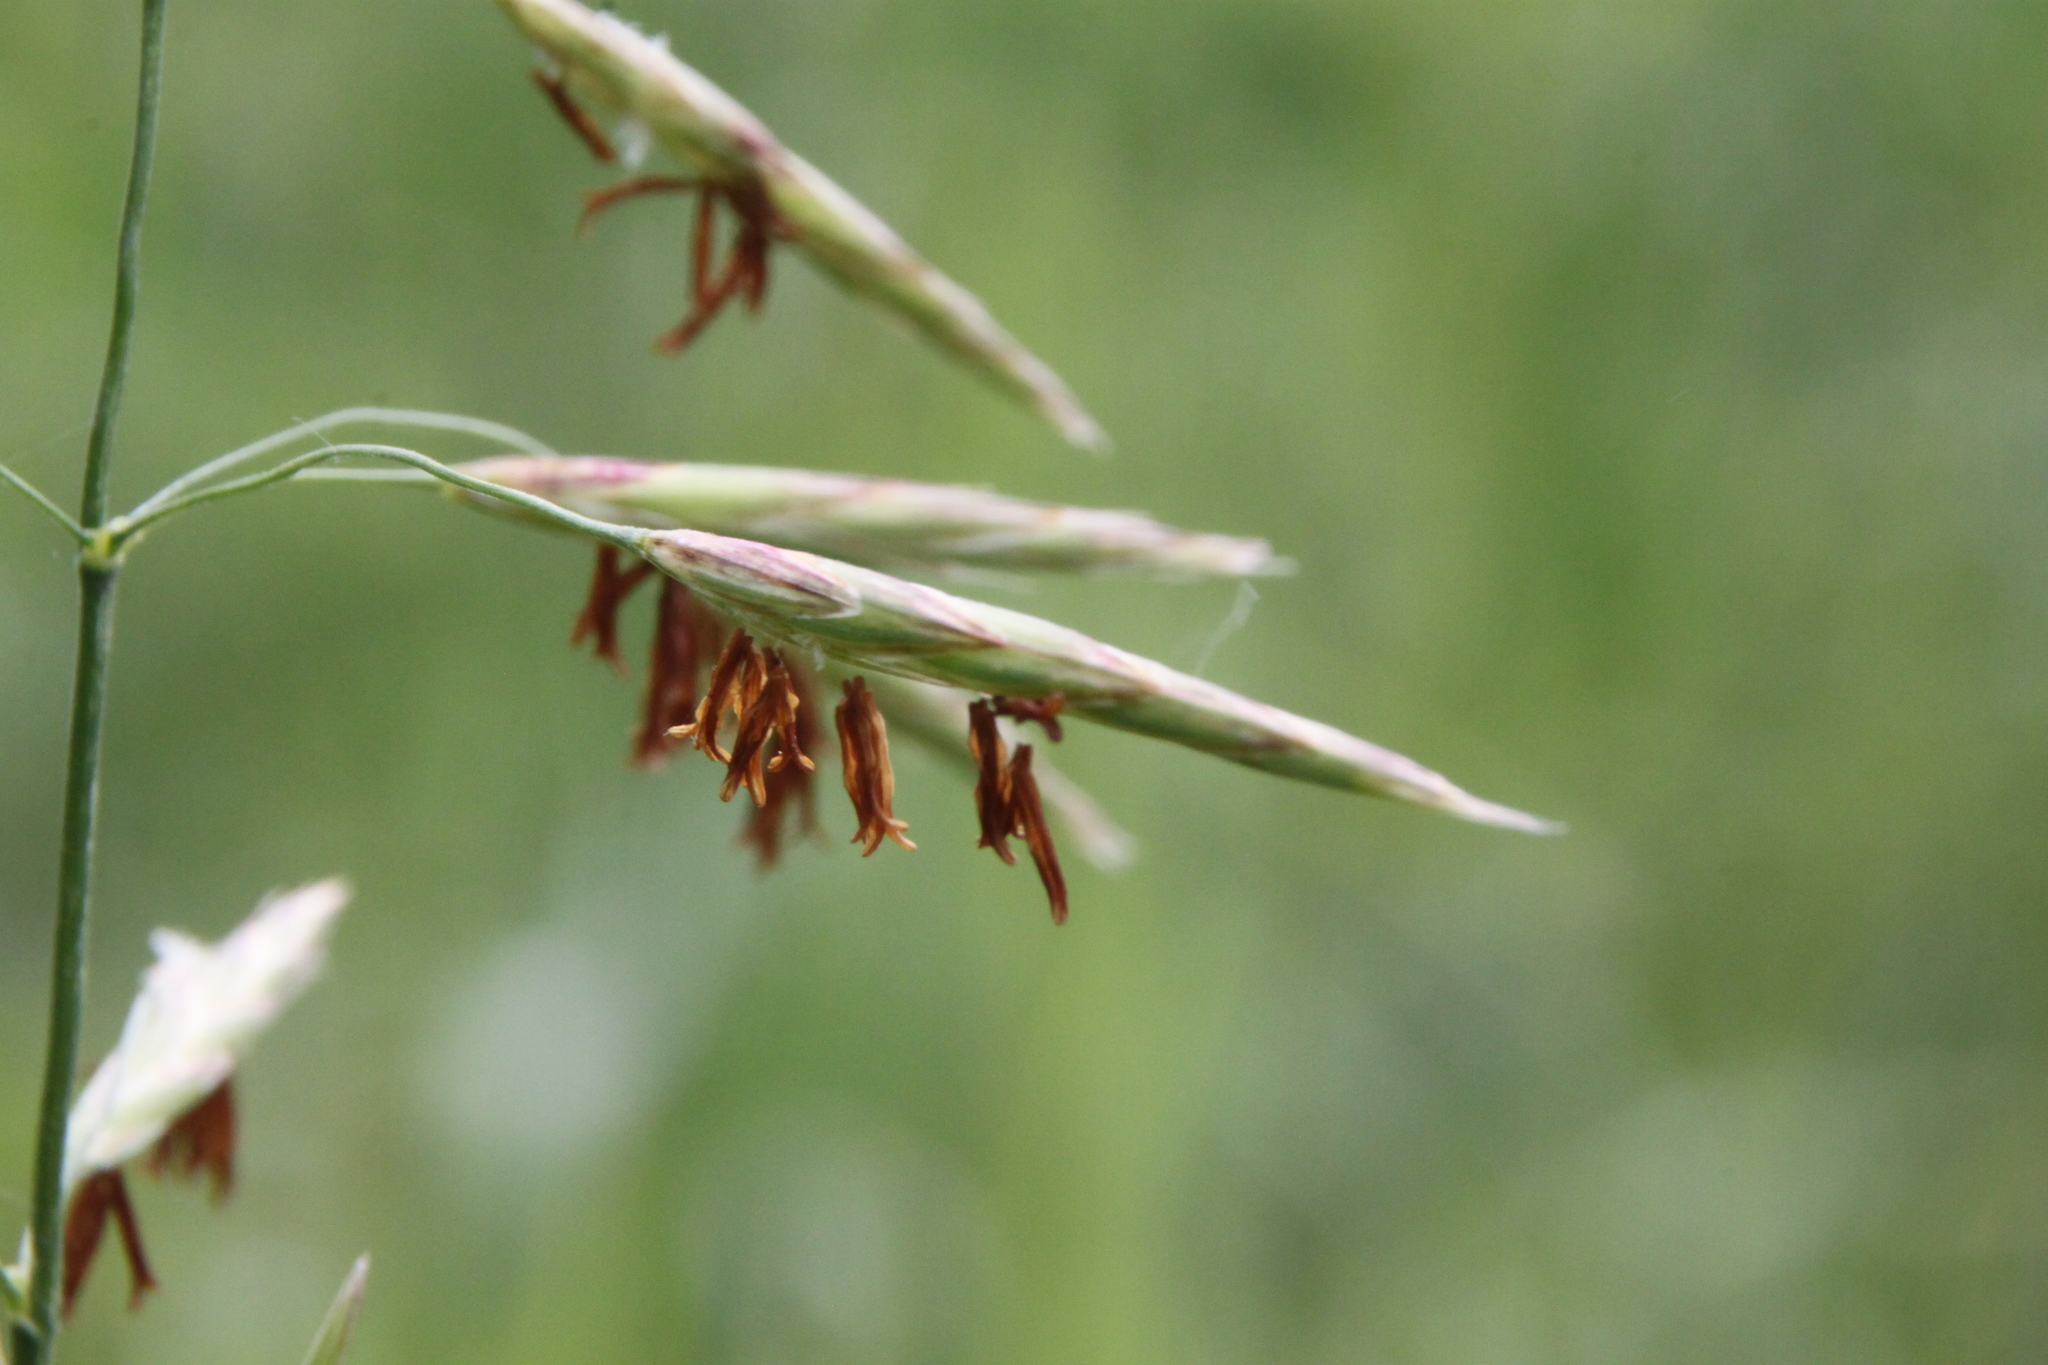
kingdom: Plantae
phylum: Tracheophyta
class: Liliopsida
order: Poales
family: Poaceae
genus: Bromus
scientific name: Bromus inermis
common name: Smooth brome
